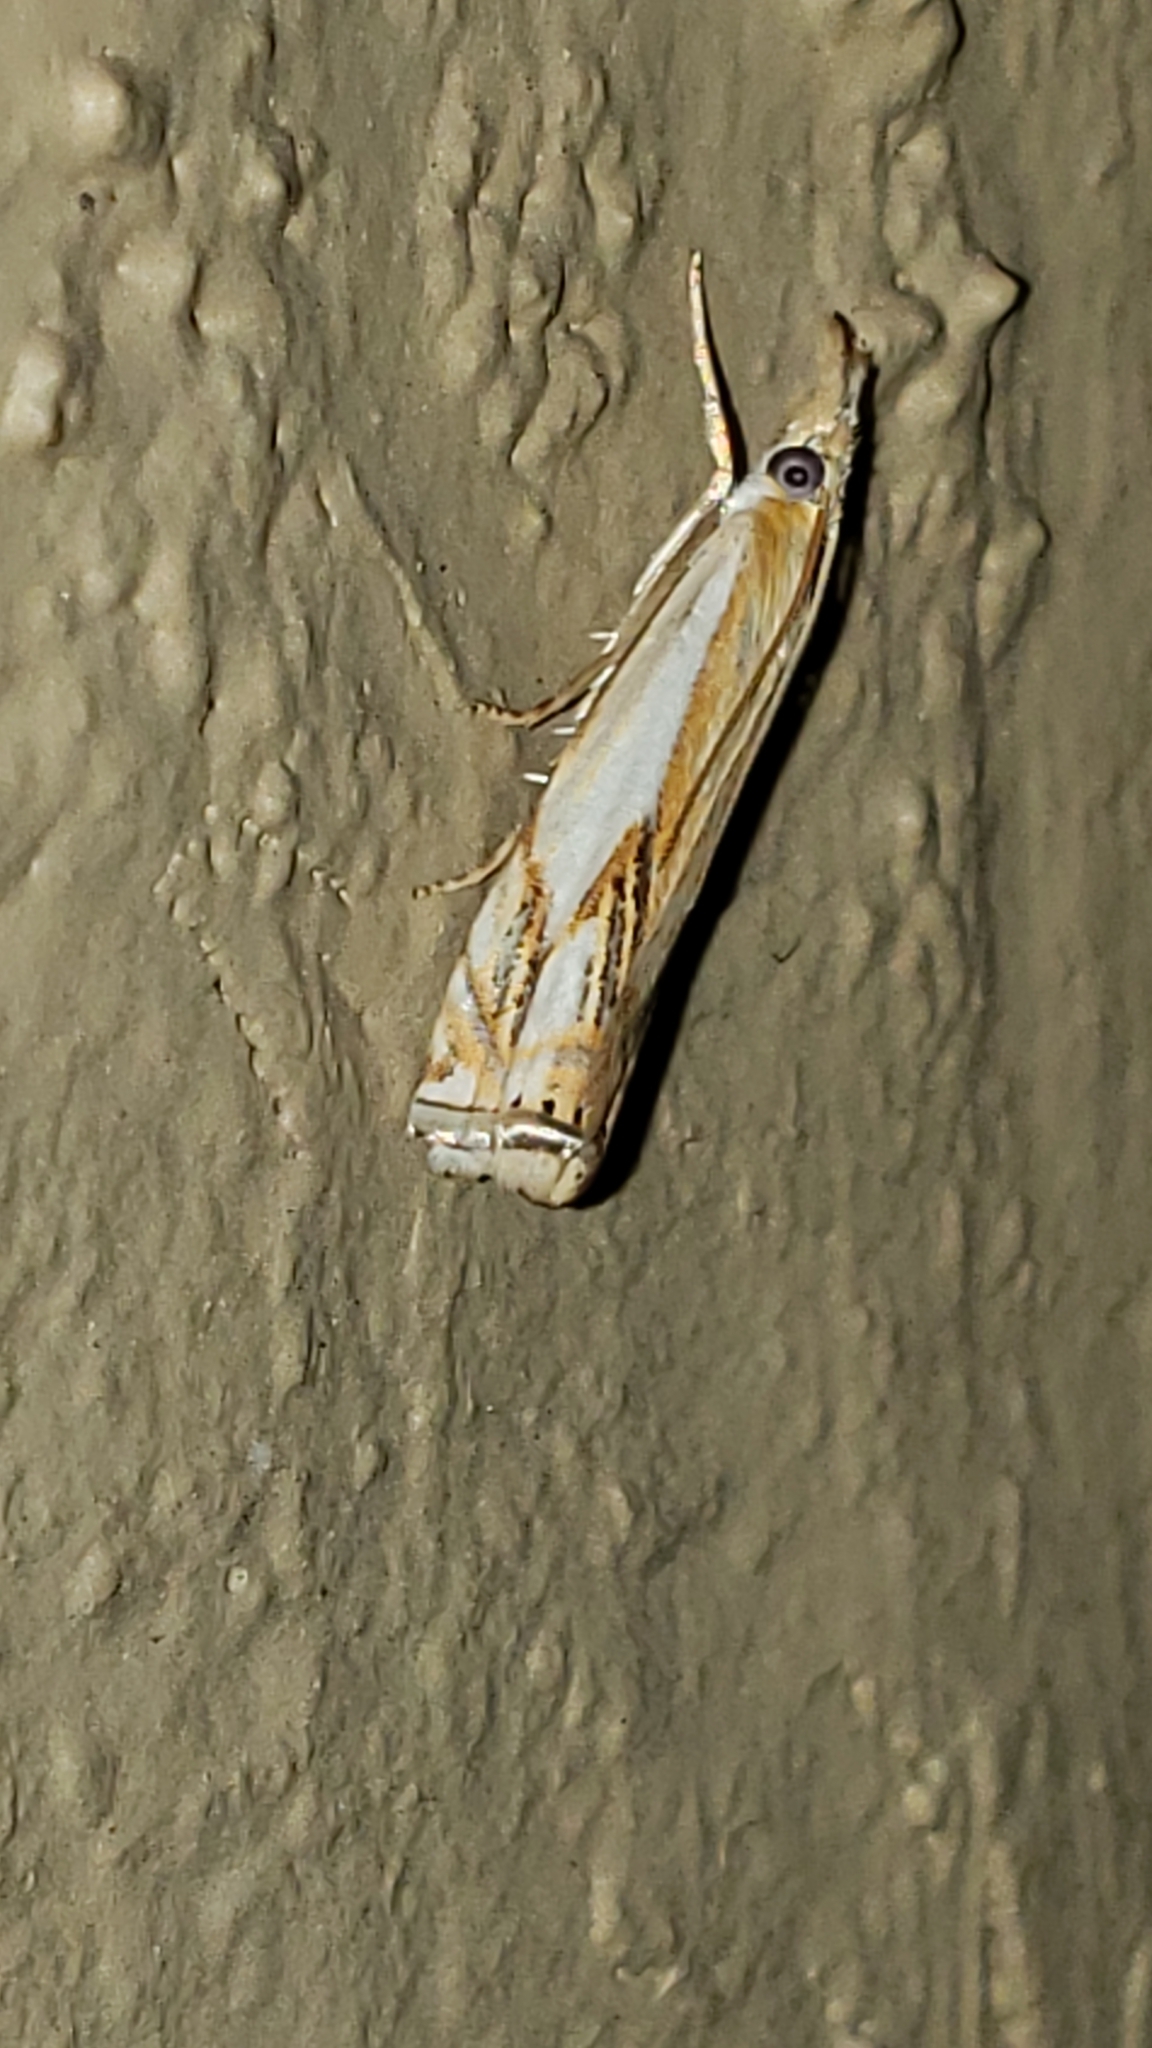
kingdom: Animalia
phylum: Arthropoda
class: Insecta
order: Lepidoptera
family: Crambidae
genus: Crambus
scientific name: Crambus agitatellus
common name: Double-banded grass-veneer
